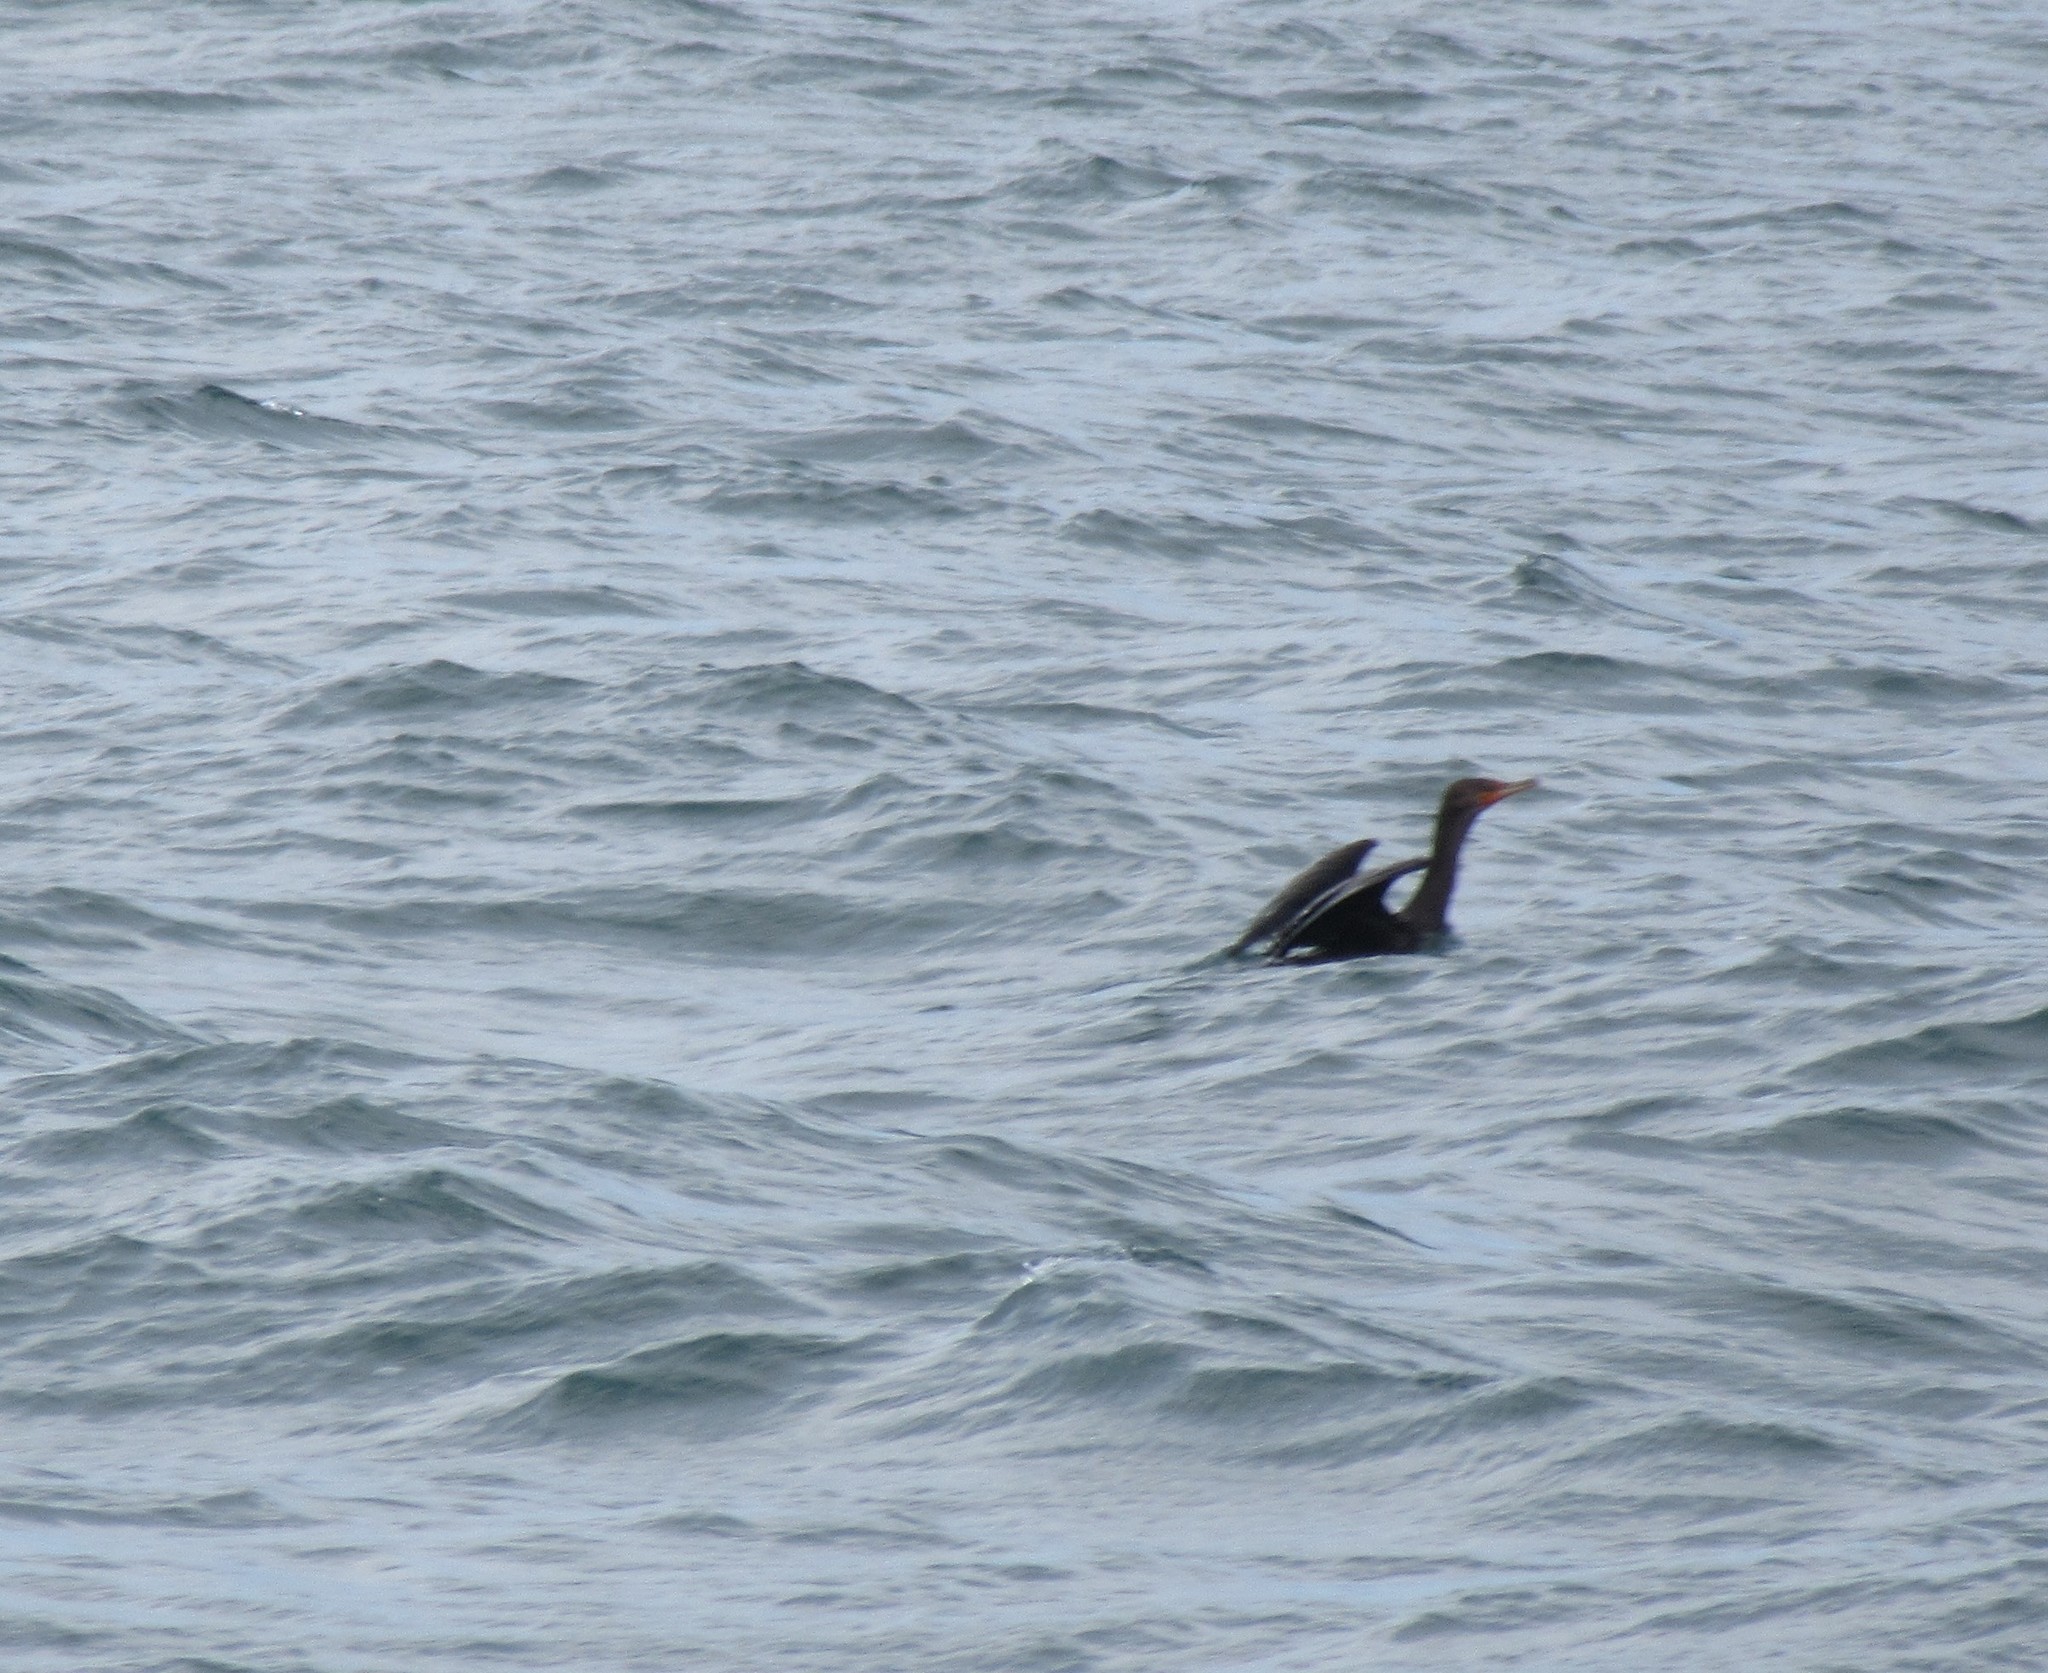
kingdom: Animalia
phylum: Chordata
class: Aves
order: Suliformes
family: Phalacrocoracidae
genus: Phalacrocorax
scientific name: Phalacrocorax auritus
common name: Double-crested cormorant
